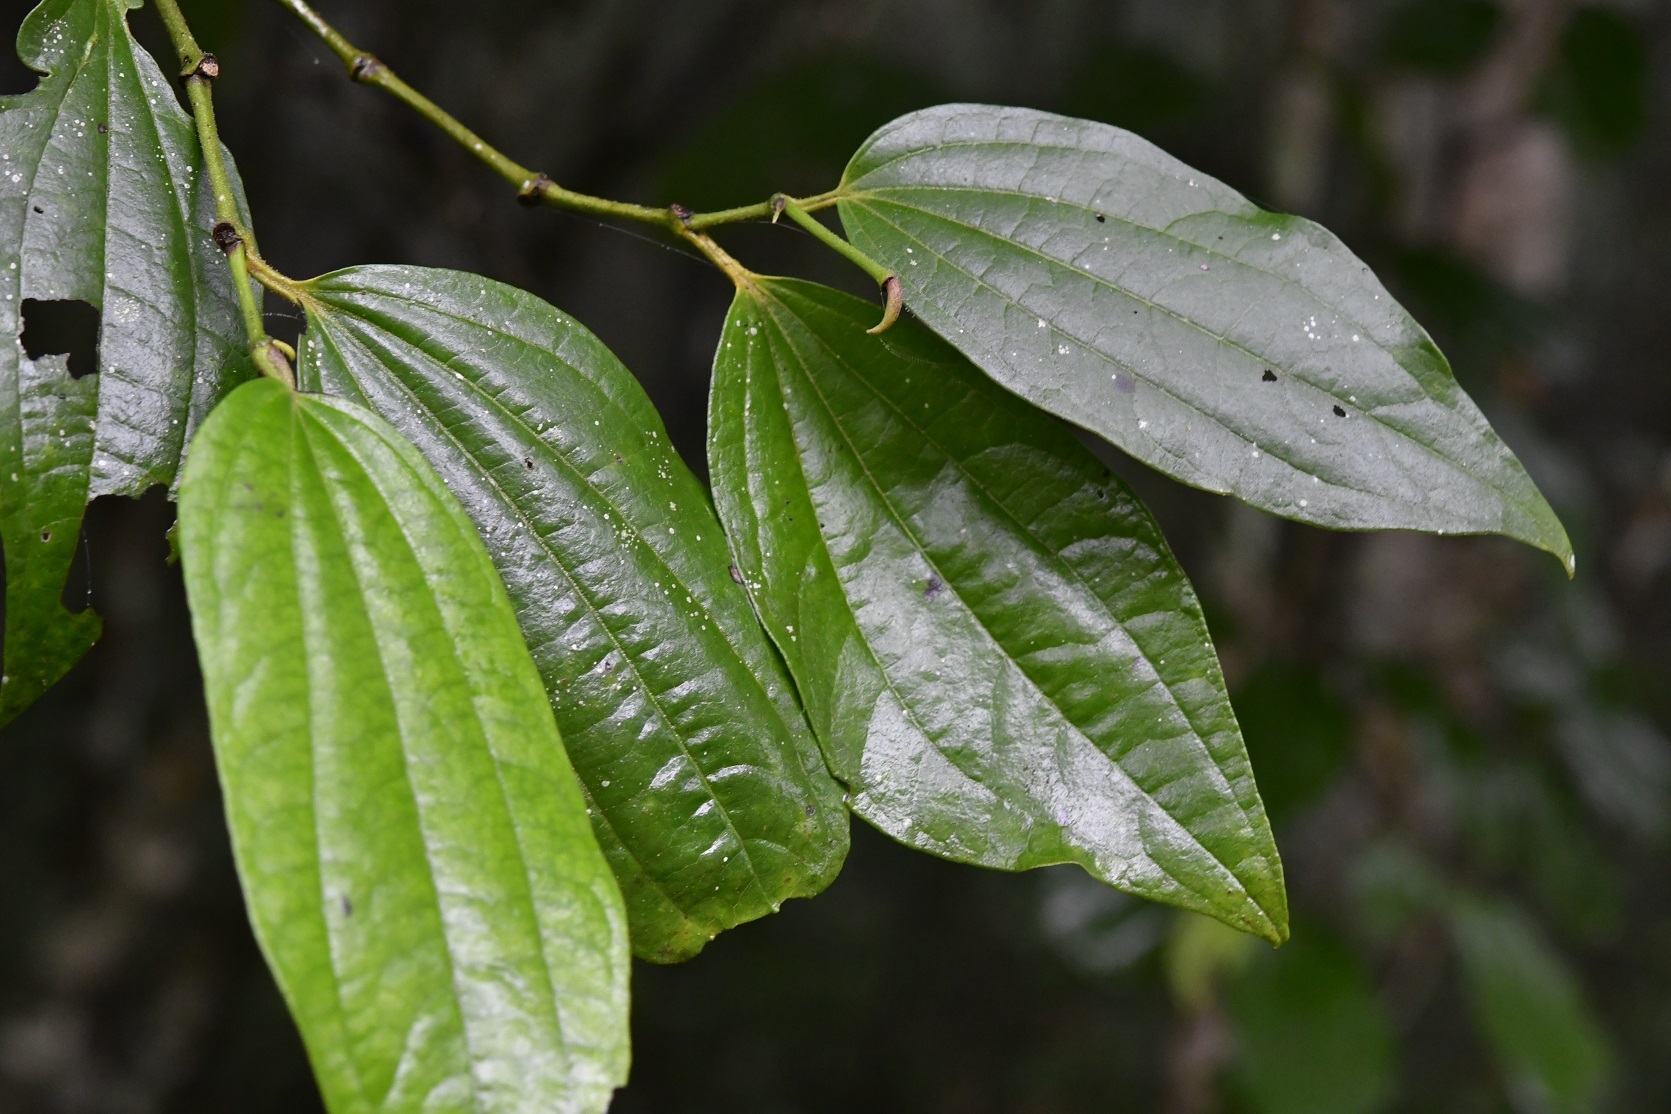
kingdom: Plantae
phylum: Tracheophyta
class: Magnoliopsida
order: Piperales
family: Piperaceae
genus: Piper
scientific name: Piper amalago
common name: Pepper-elder
